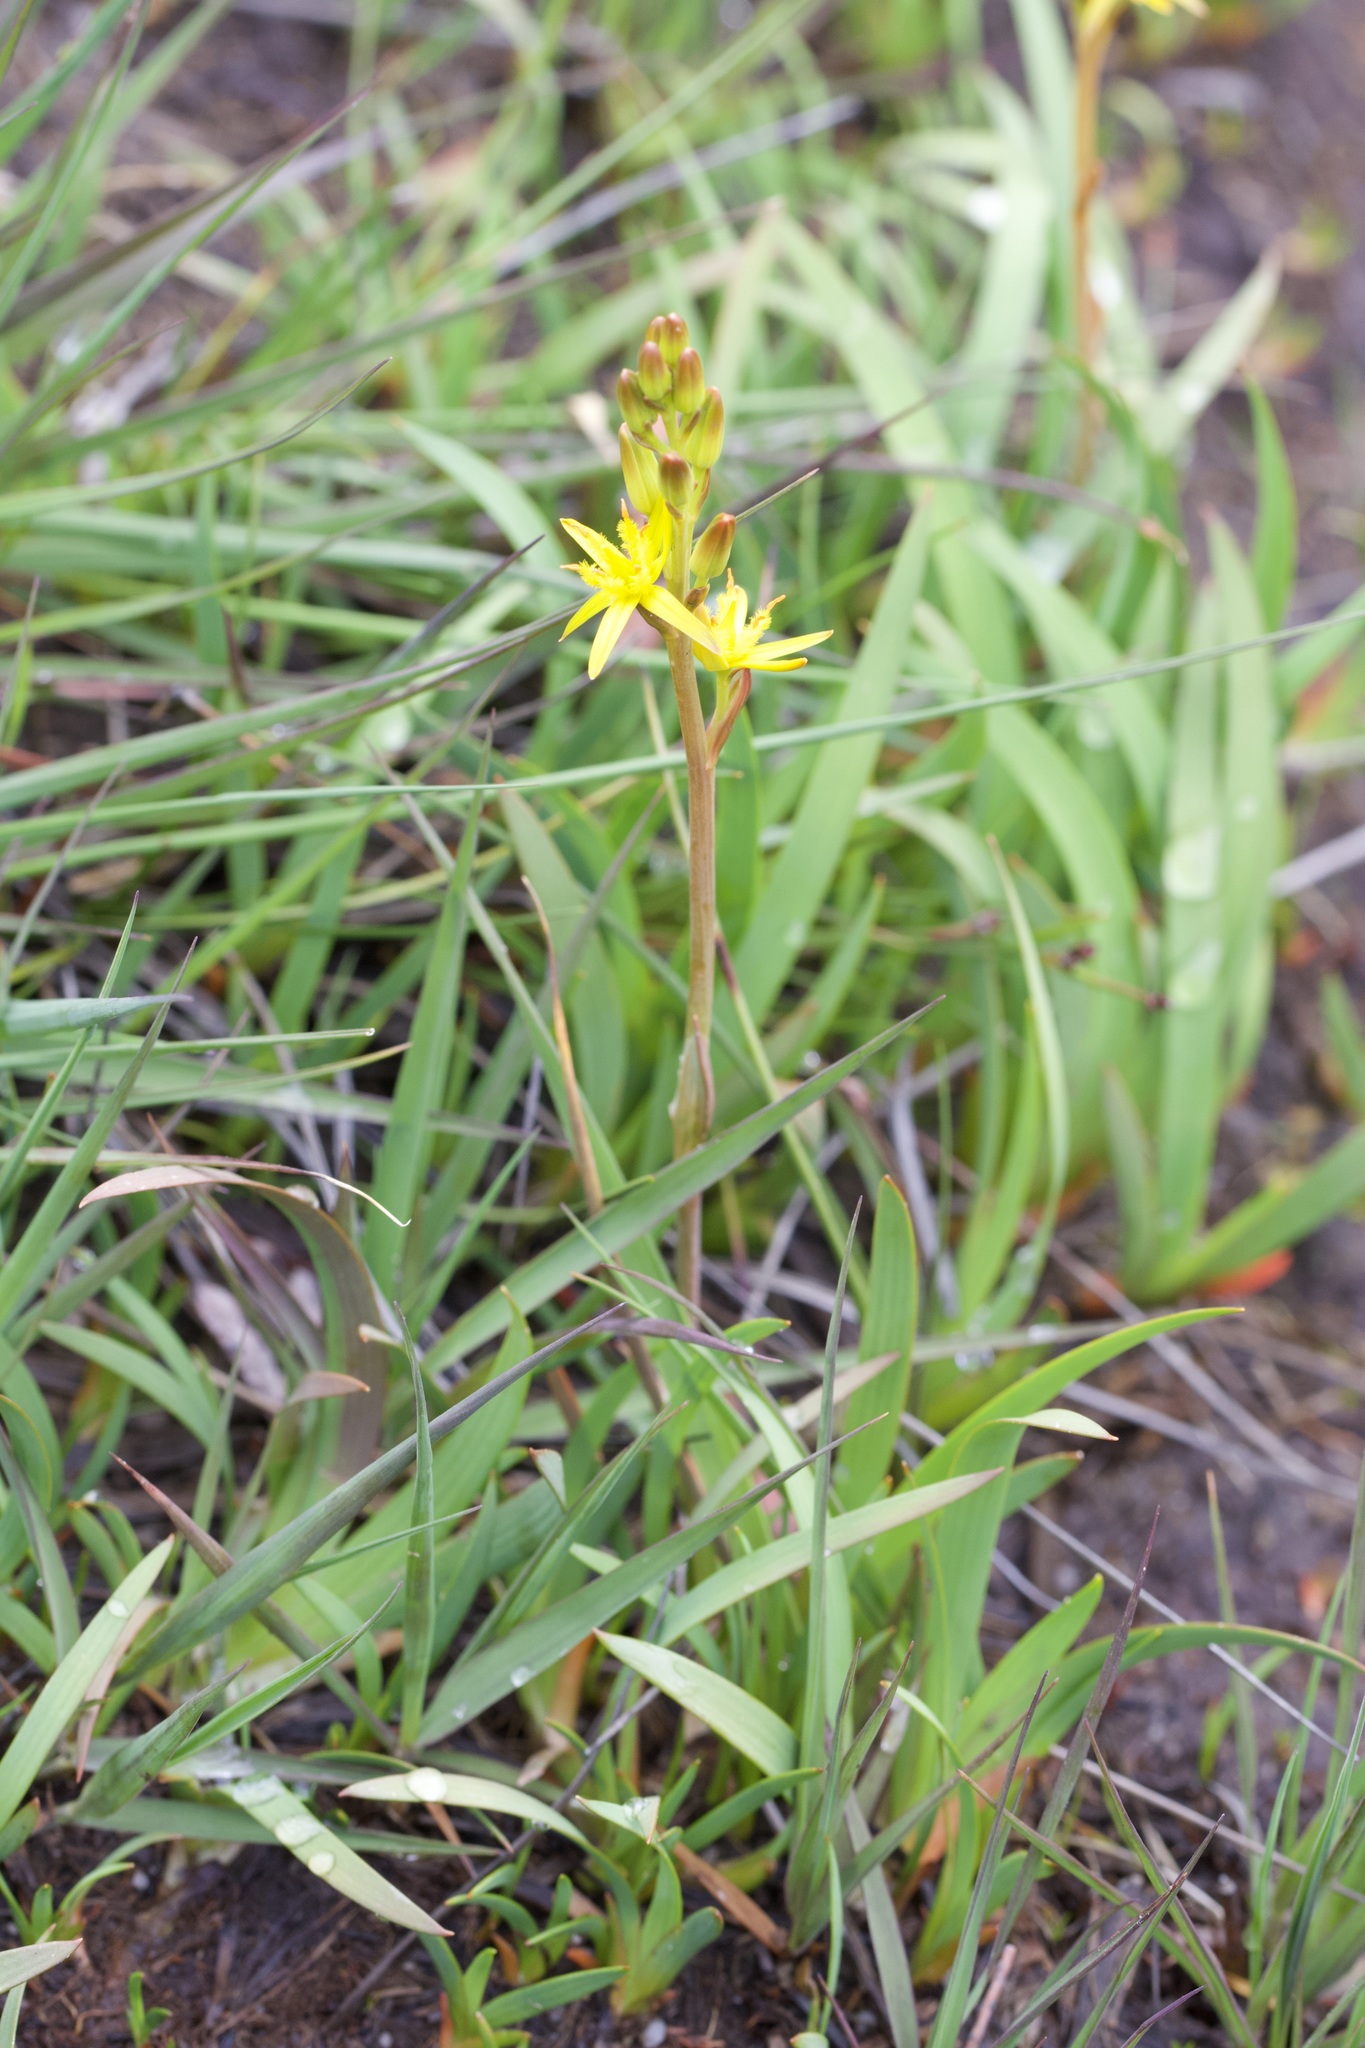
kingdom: Plantae
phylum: Tracheophyta
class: Liliopsida
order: Dioscoreales
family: Nartheciaceae
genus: Narthecium
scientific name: Narthecium ossifragum
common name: Bog asphodel
